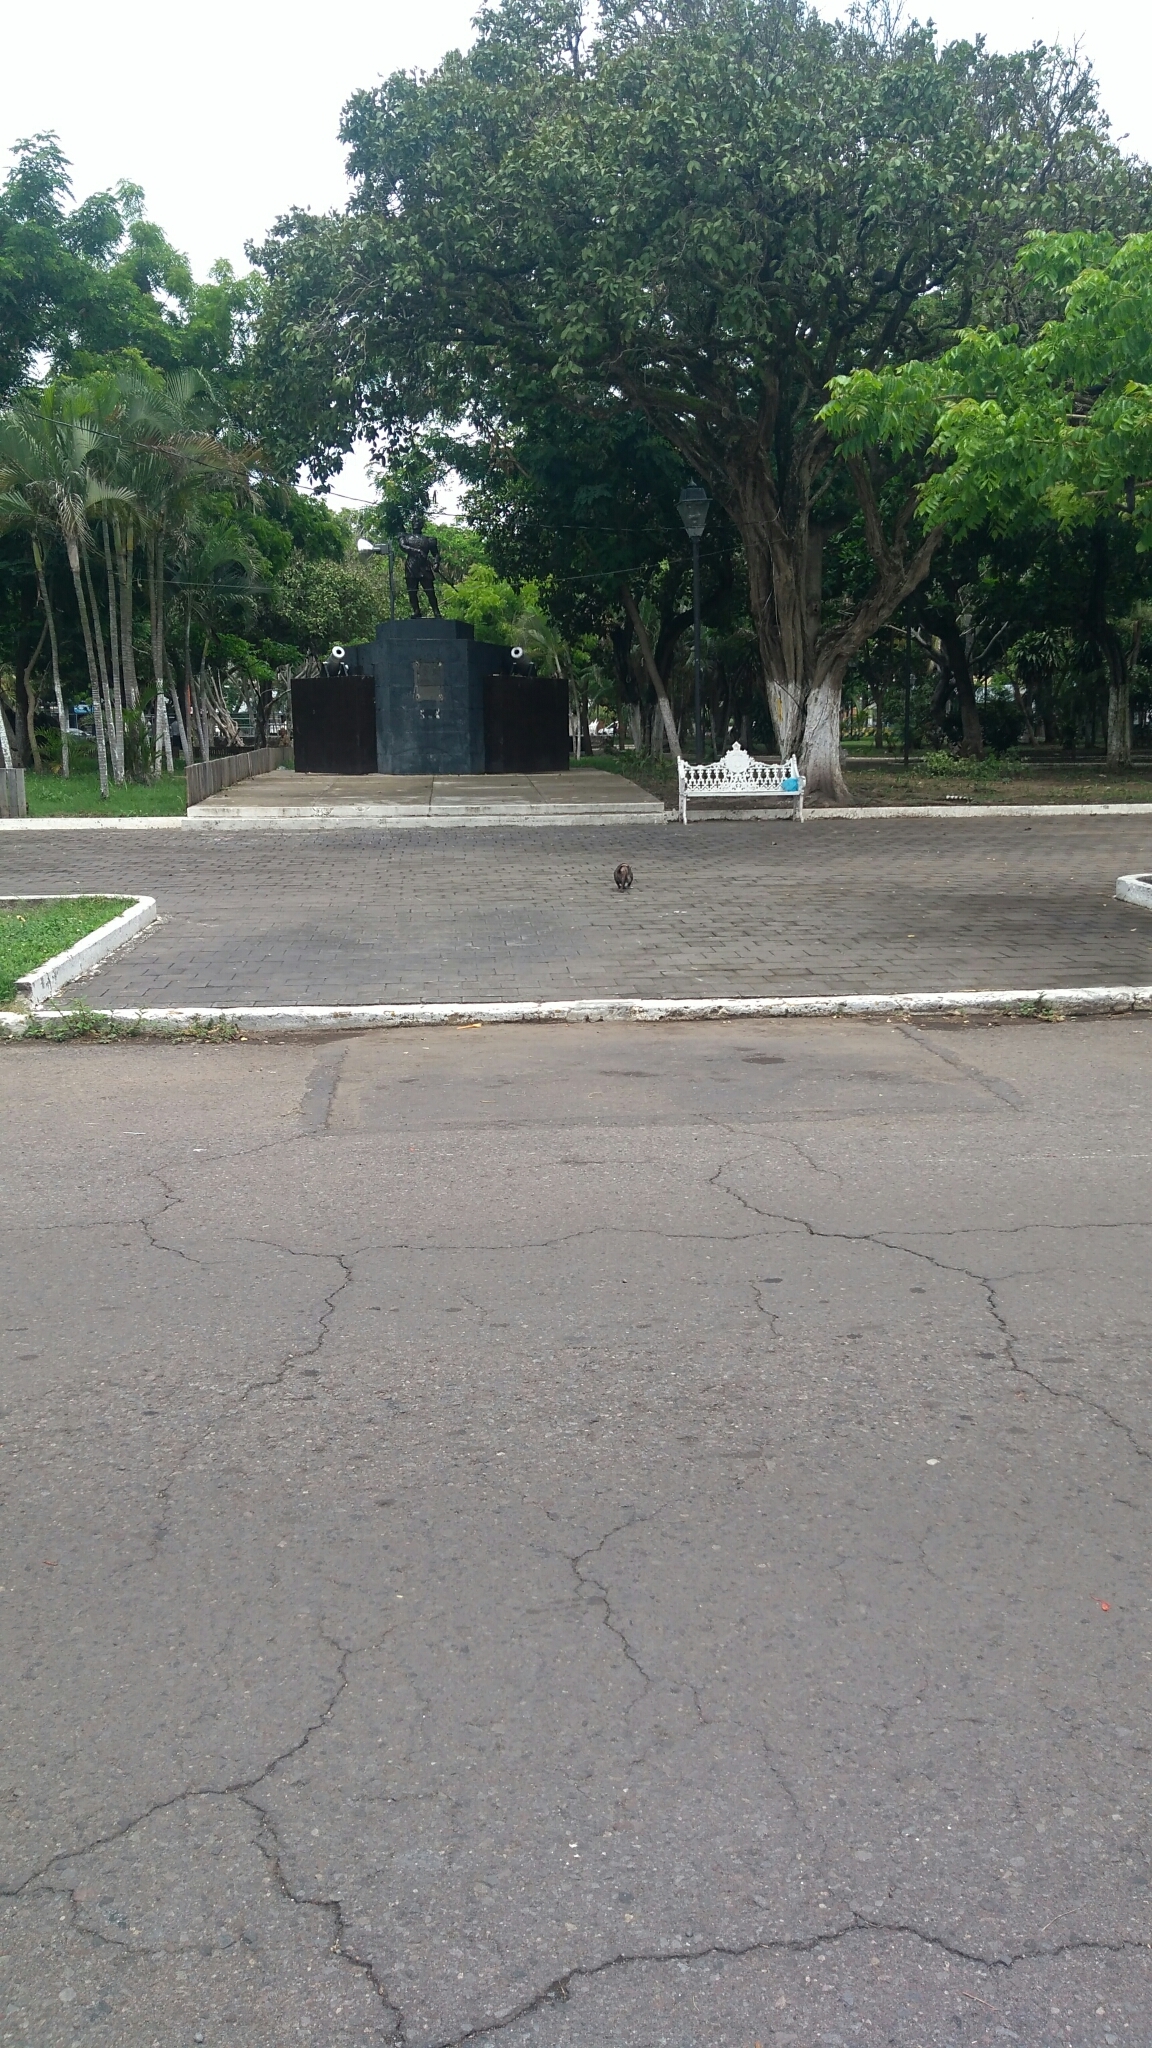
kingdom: Animalia
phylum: Chordata
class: Mammalia
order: Didelphimorphia
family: Didelphidae
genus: Didelphis
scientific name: Didelphis virginiana
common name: Virginia opossum
